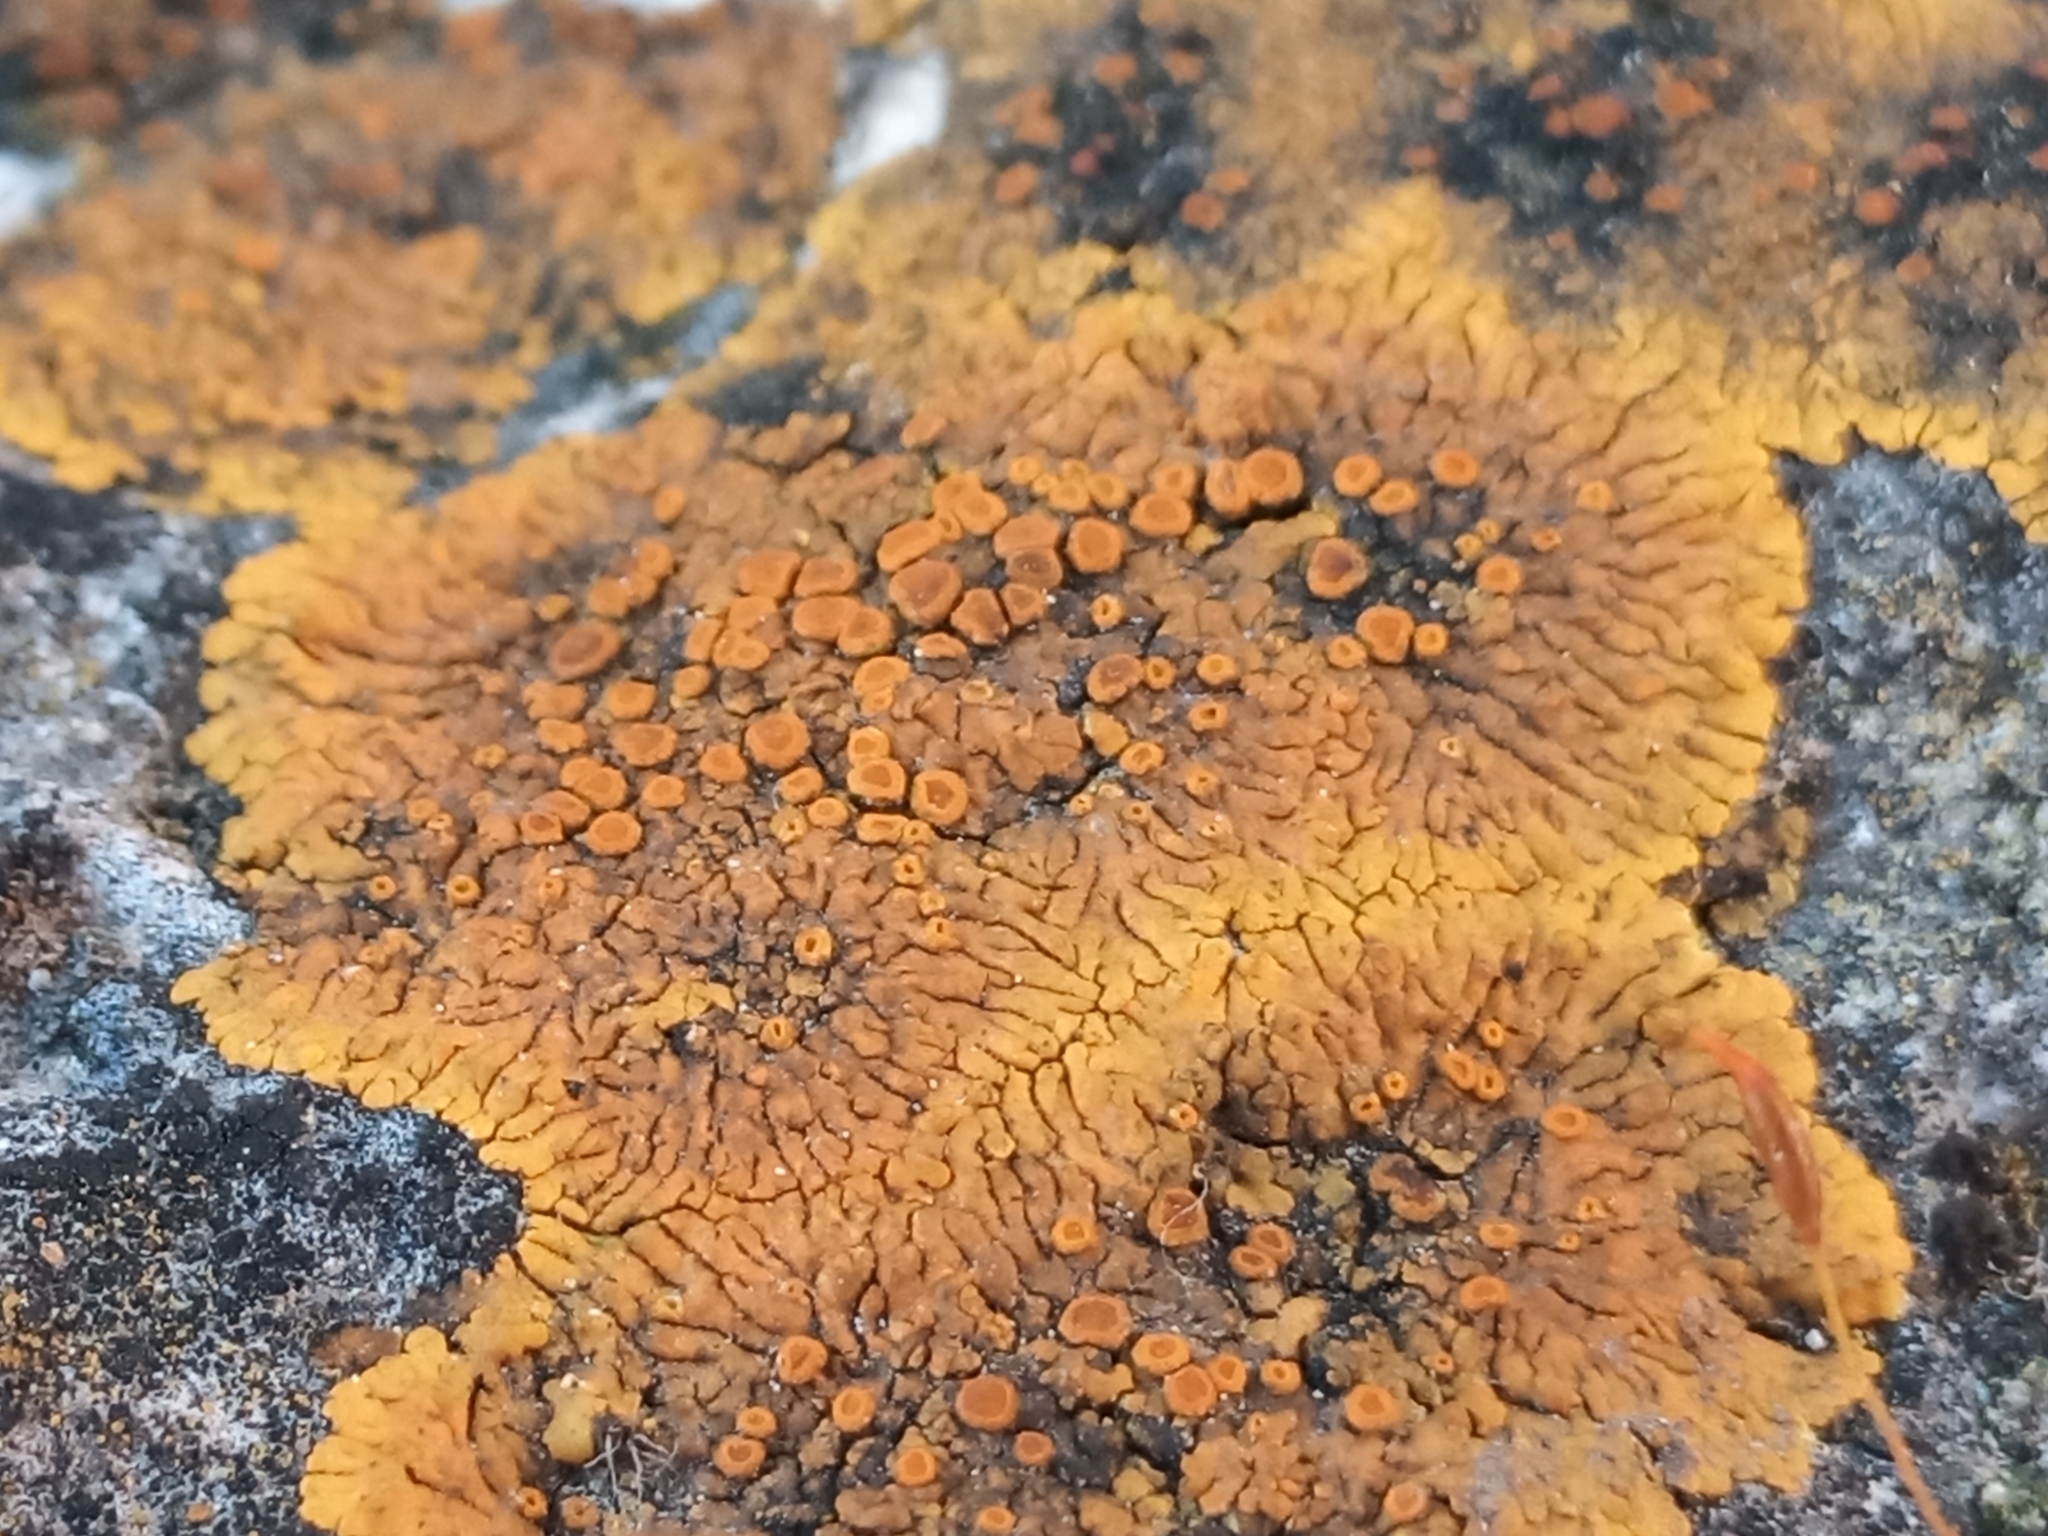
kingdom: Fungi
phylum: Ascomycota
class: Lecanoromycetes
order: Teloschistales
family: Teloschistaceae
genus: Variospora
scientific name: Variospora flavescens
